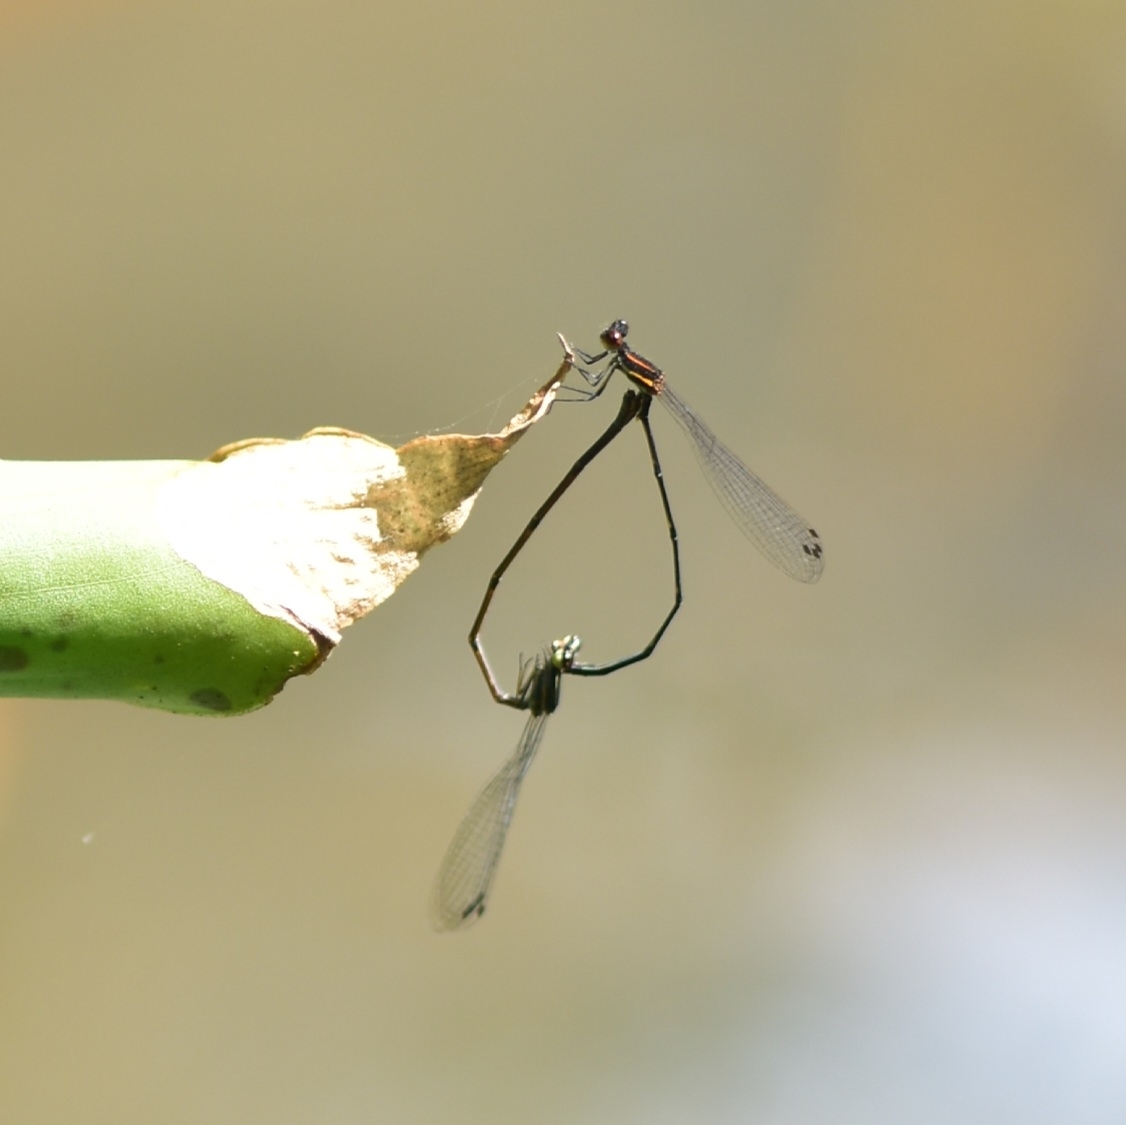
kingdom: Animalia
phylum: Arthropoda
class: Insecta
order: Odonata
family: Platycnemididae
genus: Prodasineura
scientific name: Prodasineura verticalis
